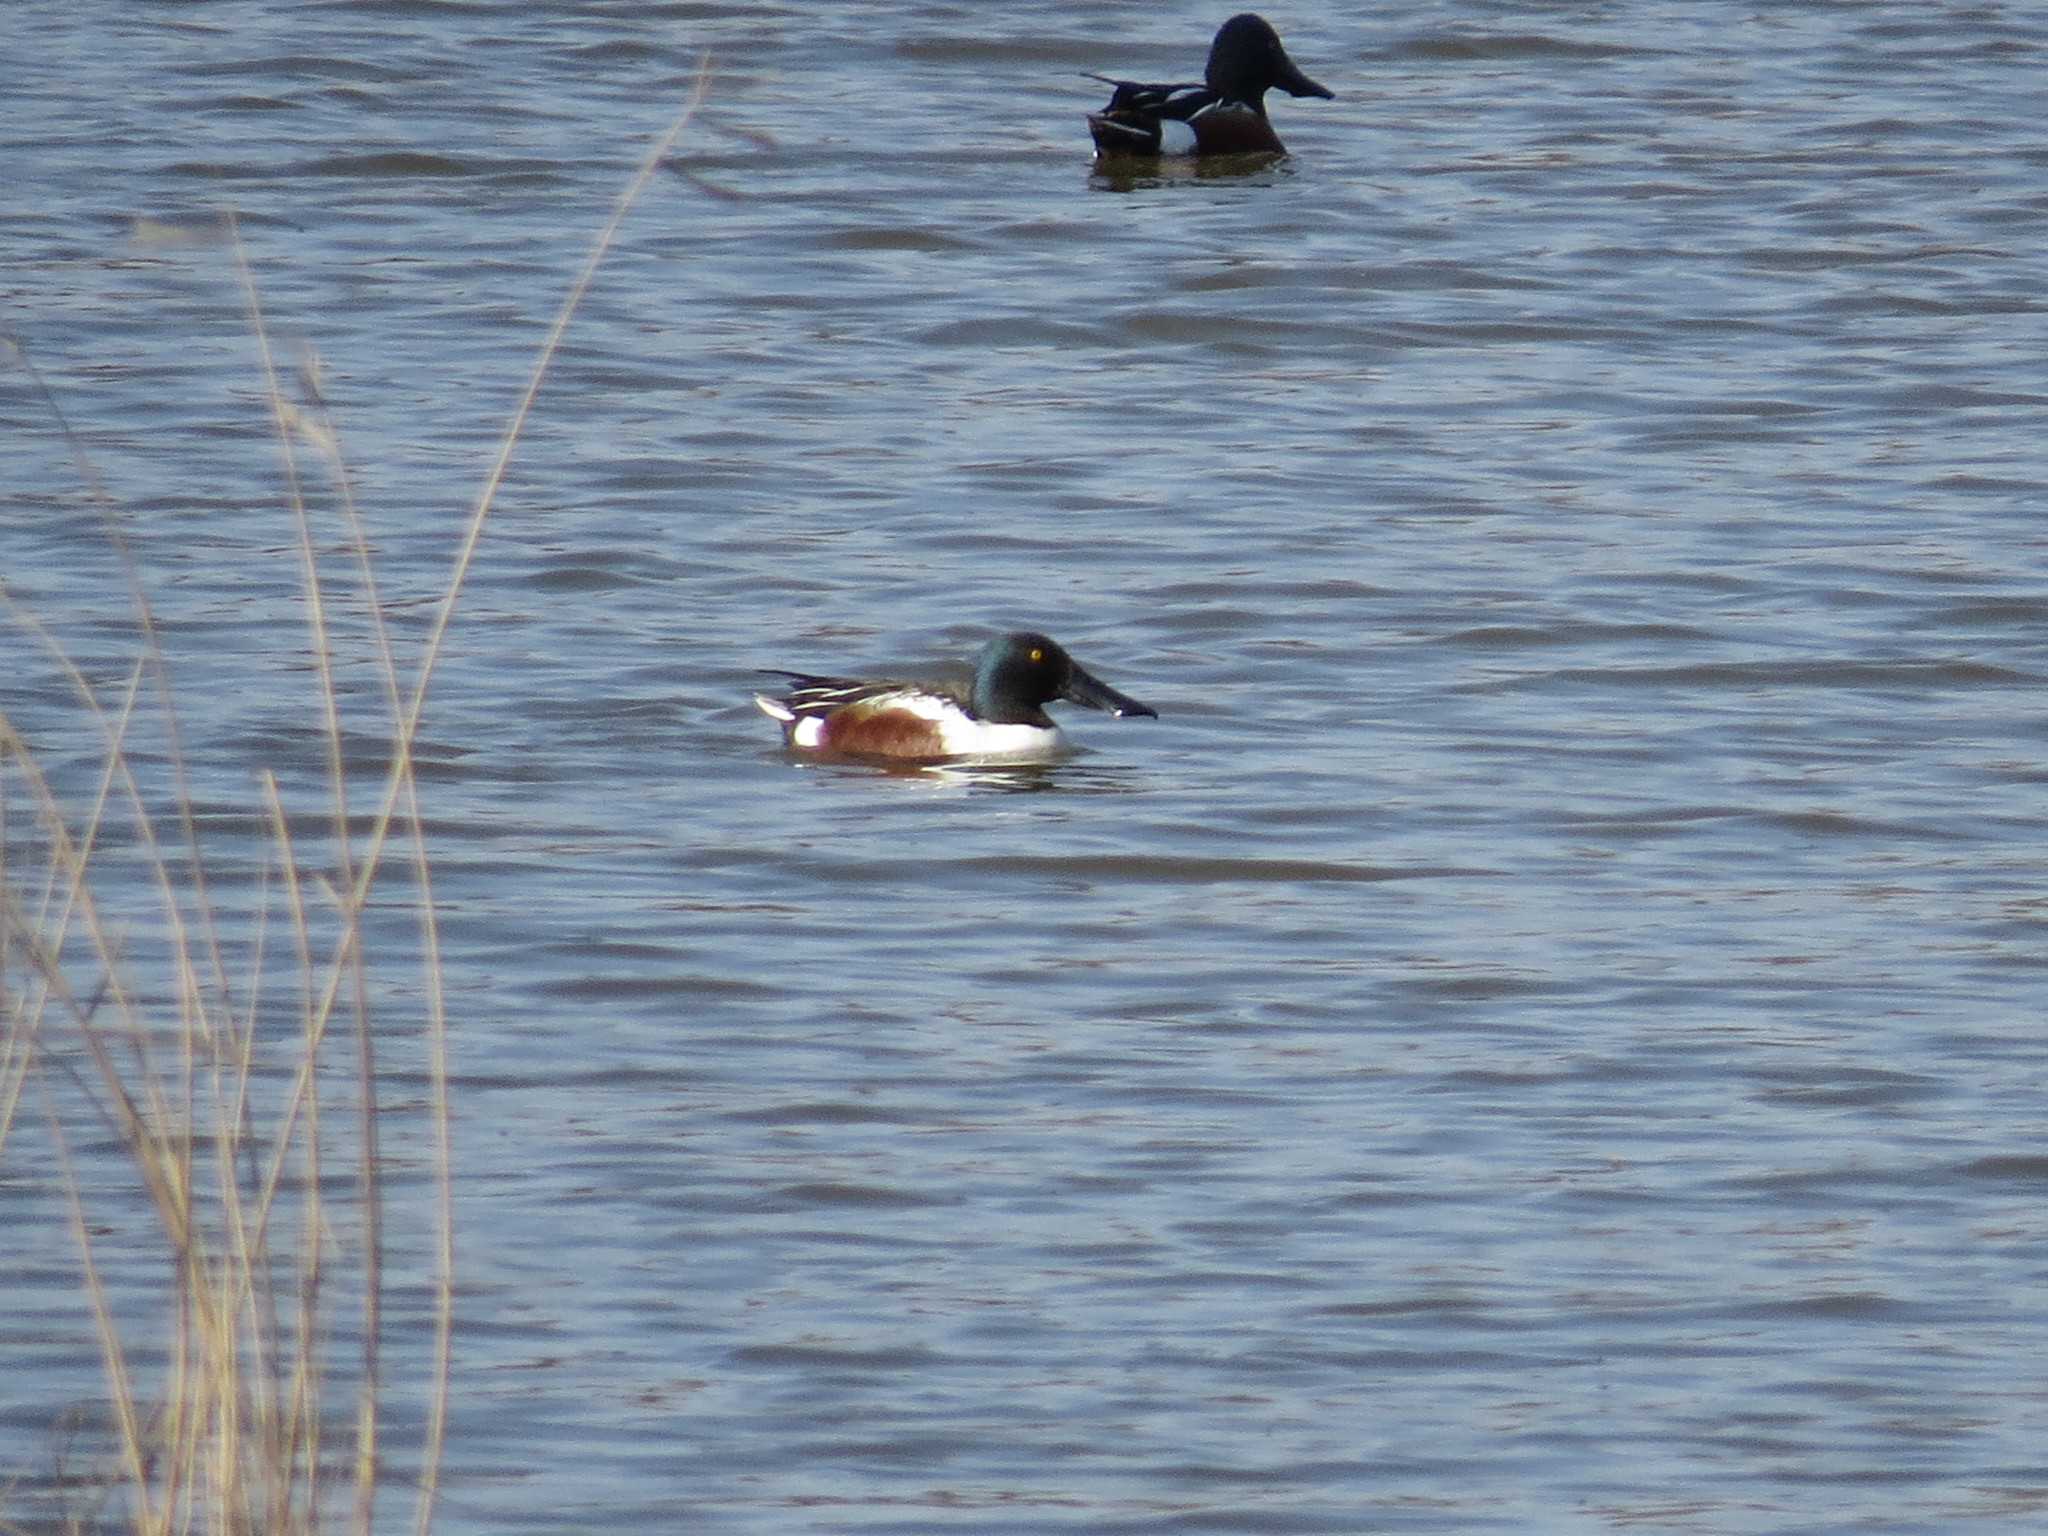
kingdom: Animalia
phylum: Chordata
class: Aves
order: Anseriformes
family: Anatidae
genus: Spatula
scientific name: Spatula clypeata
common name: Northern shoveler
